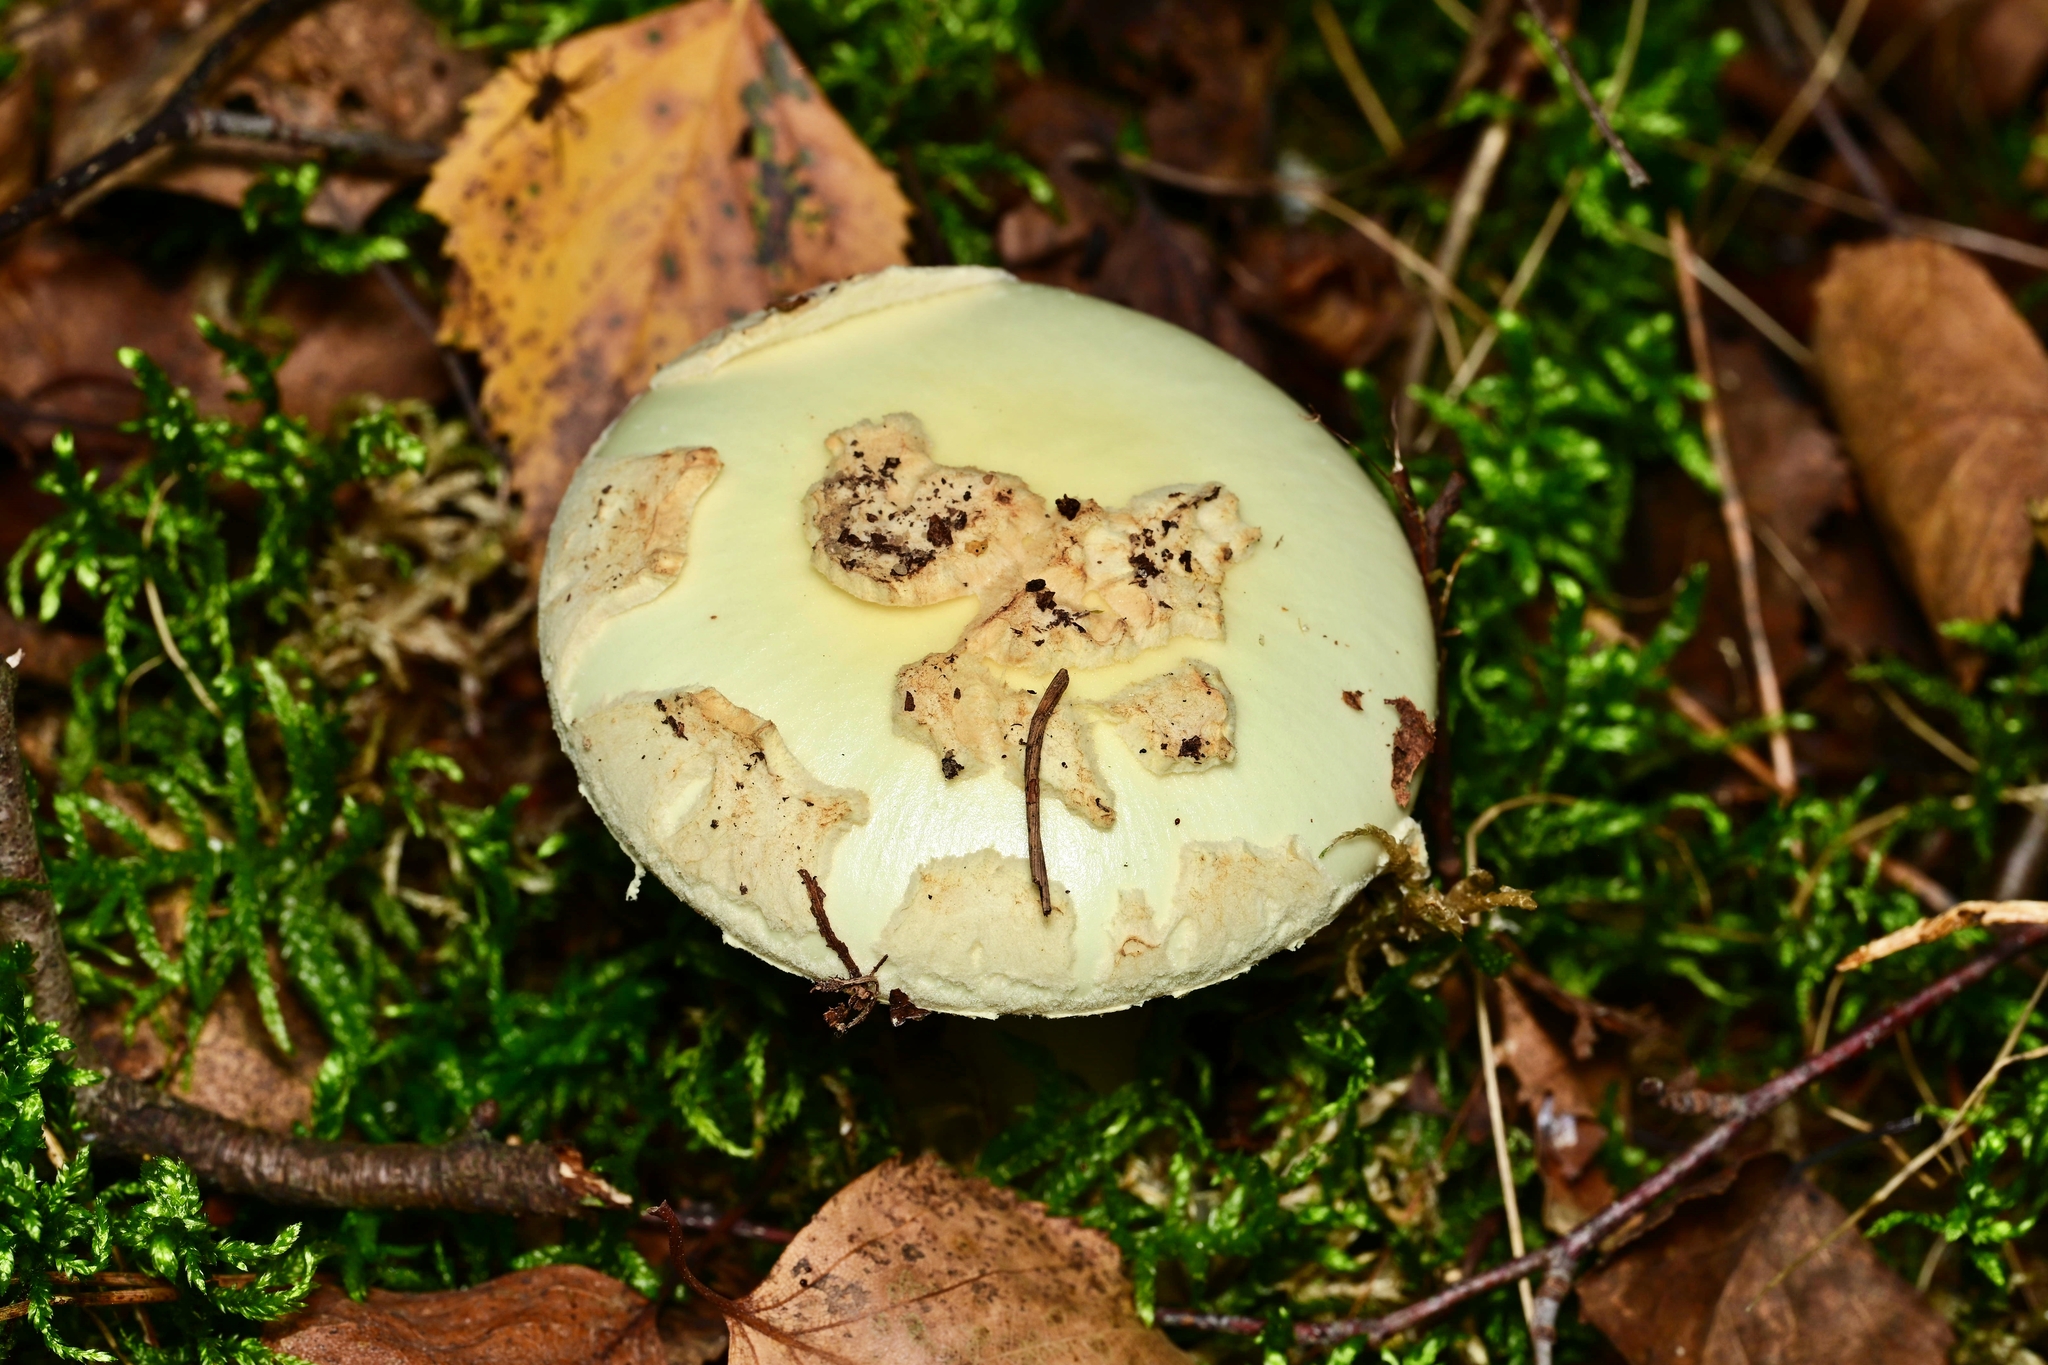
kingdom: Fungi
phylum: Basidiomycota
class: Agaricomycetes
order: Agaricales
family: Amanitaceae
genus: Amanita
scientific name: Amanita citrina
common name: False death-cap
